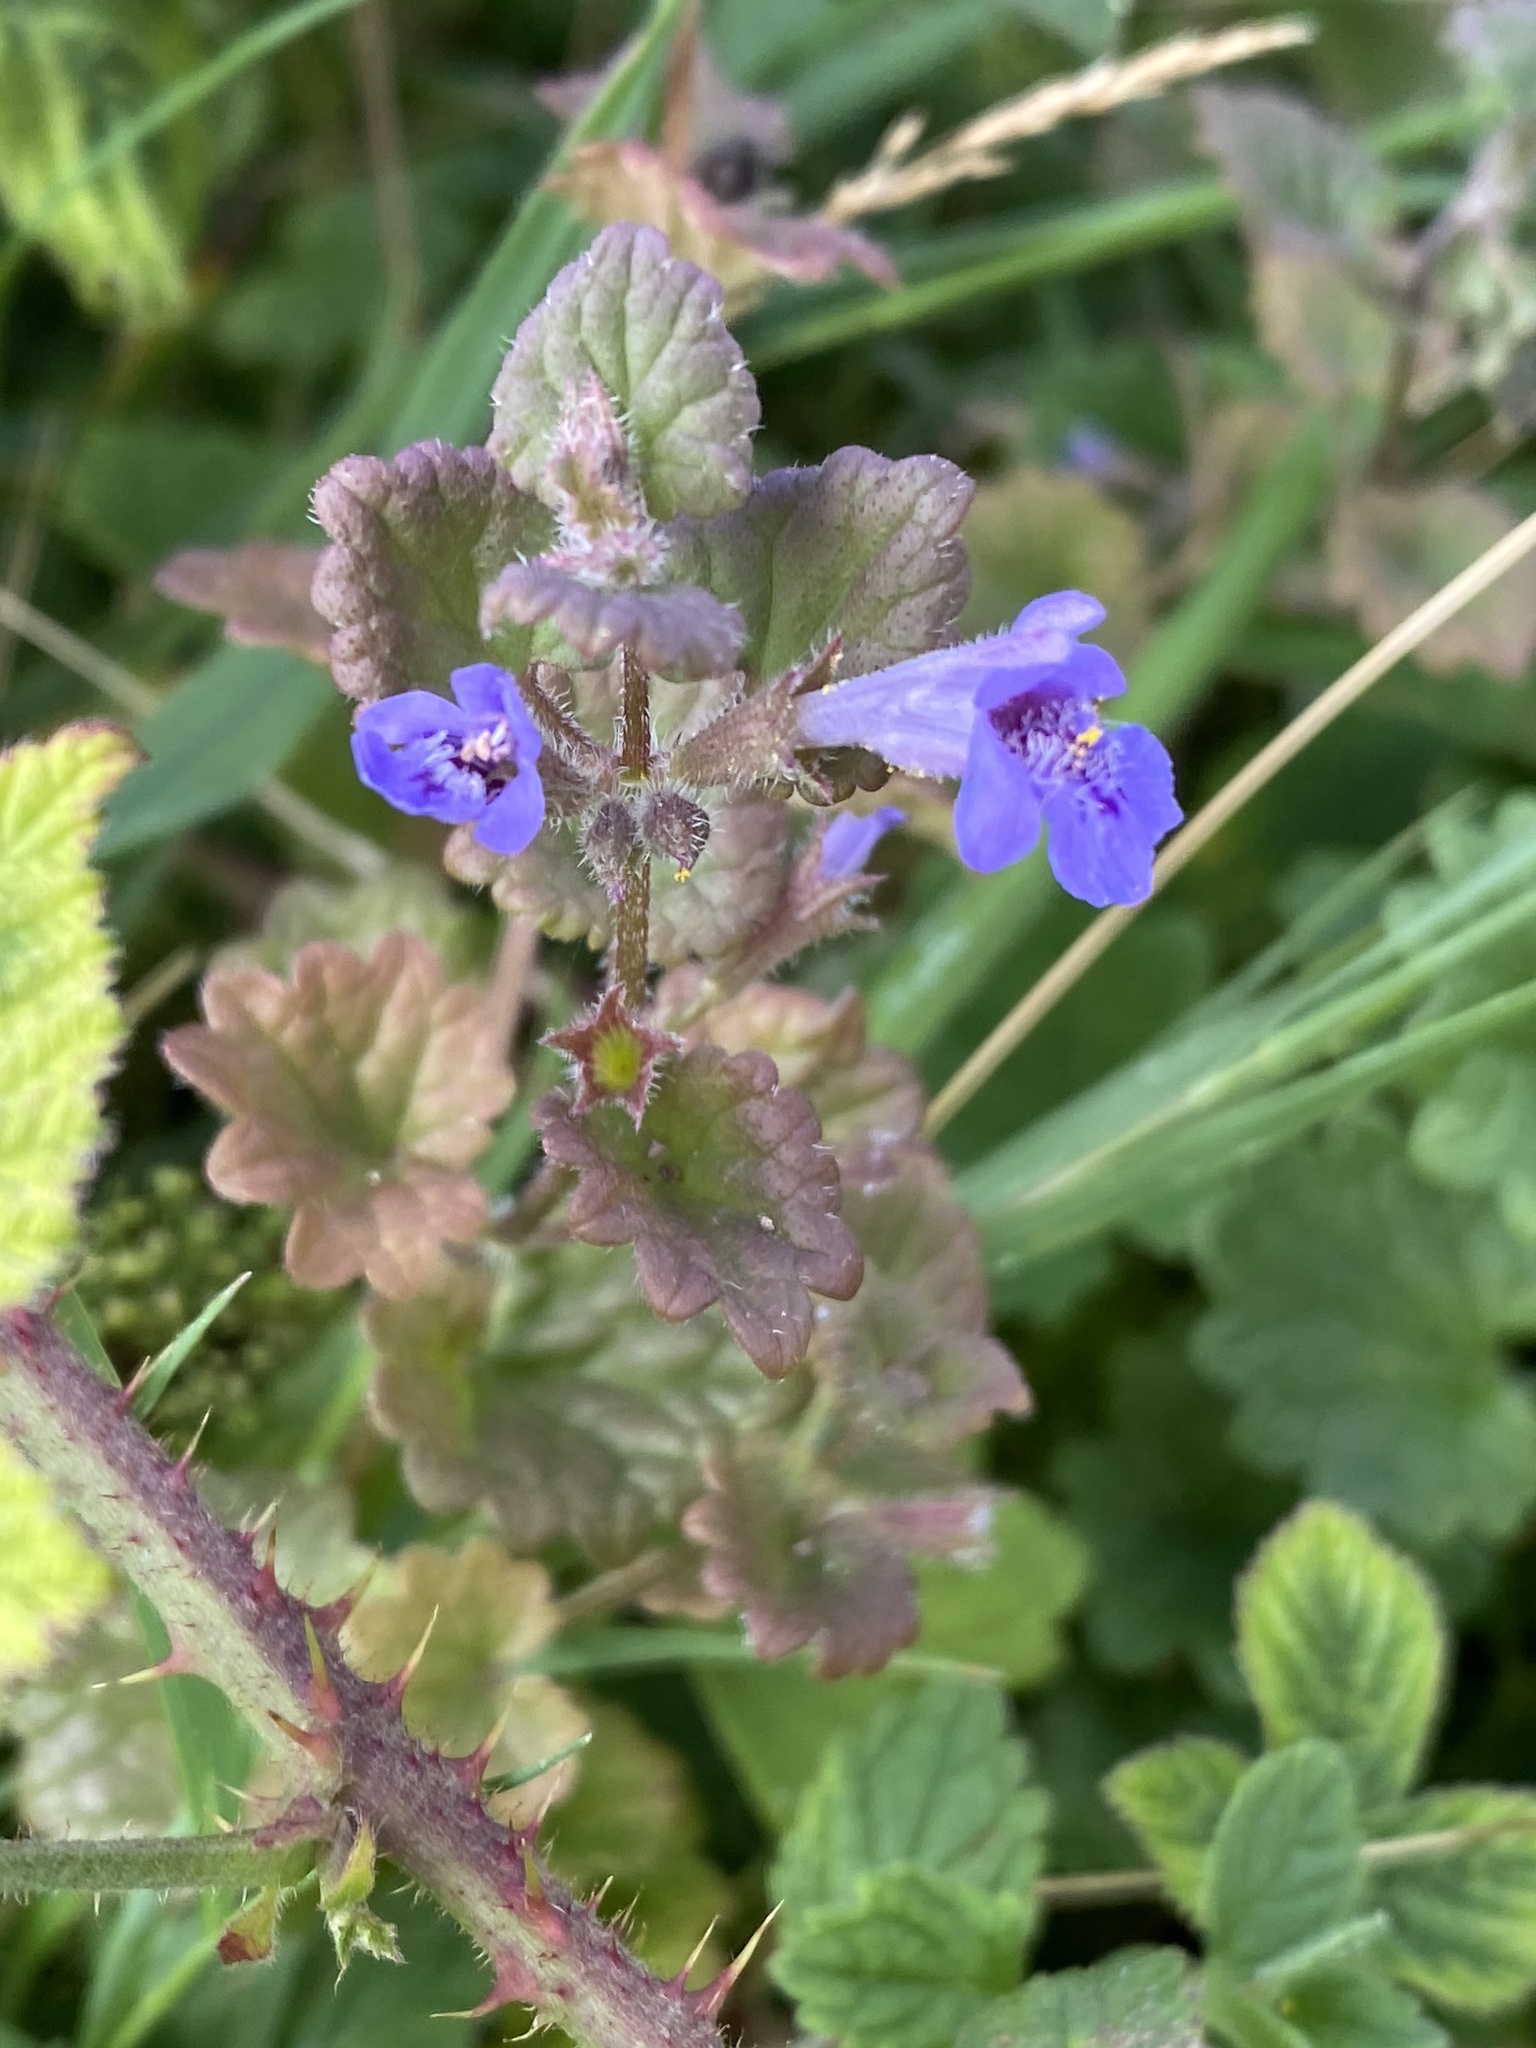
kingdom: Plantae
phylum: Tracheophyta
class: Magnoliopsida
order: Lamiales
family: Lamiaceae
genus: Glechoma
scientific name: Glechoma hederacea
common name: Ground ivy
